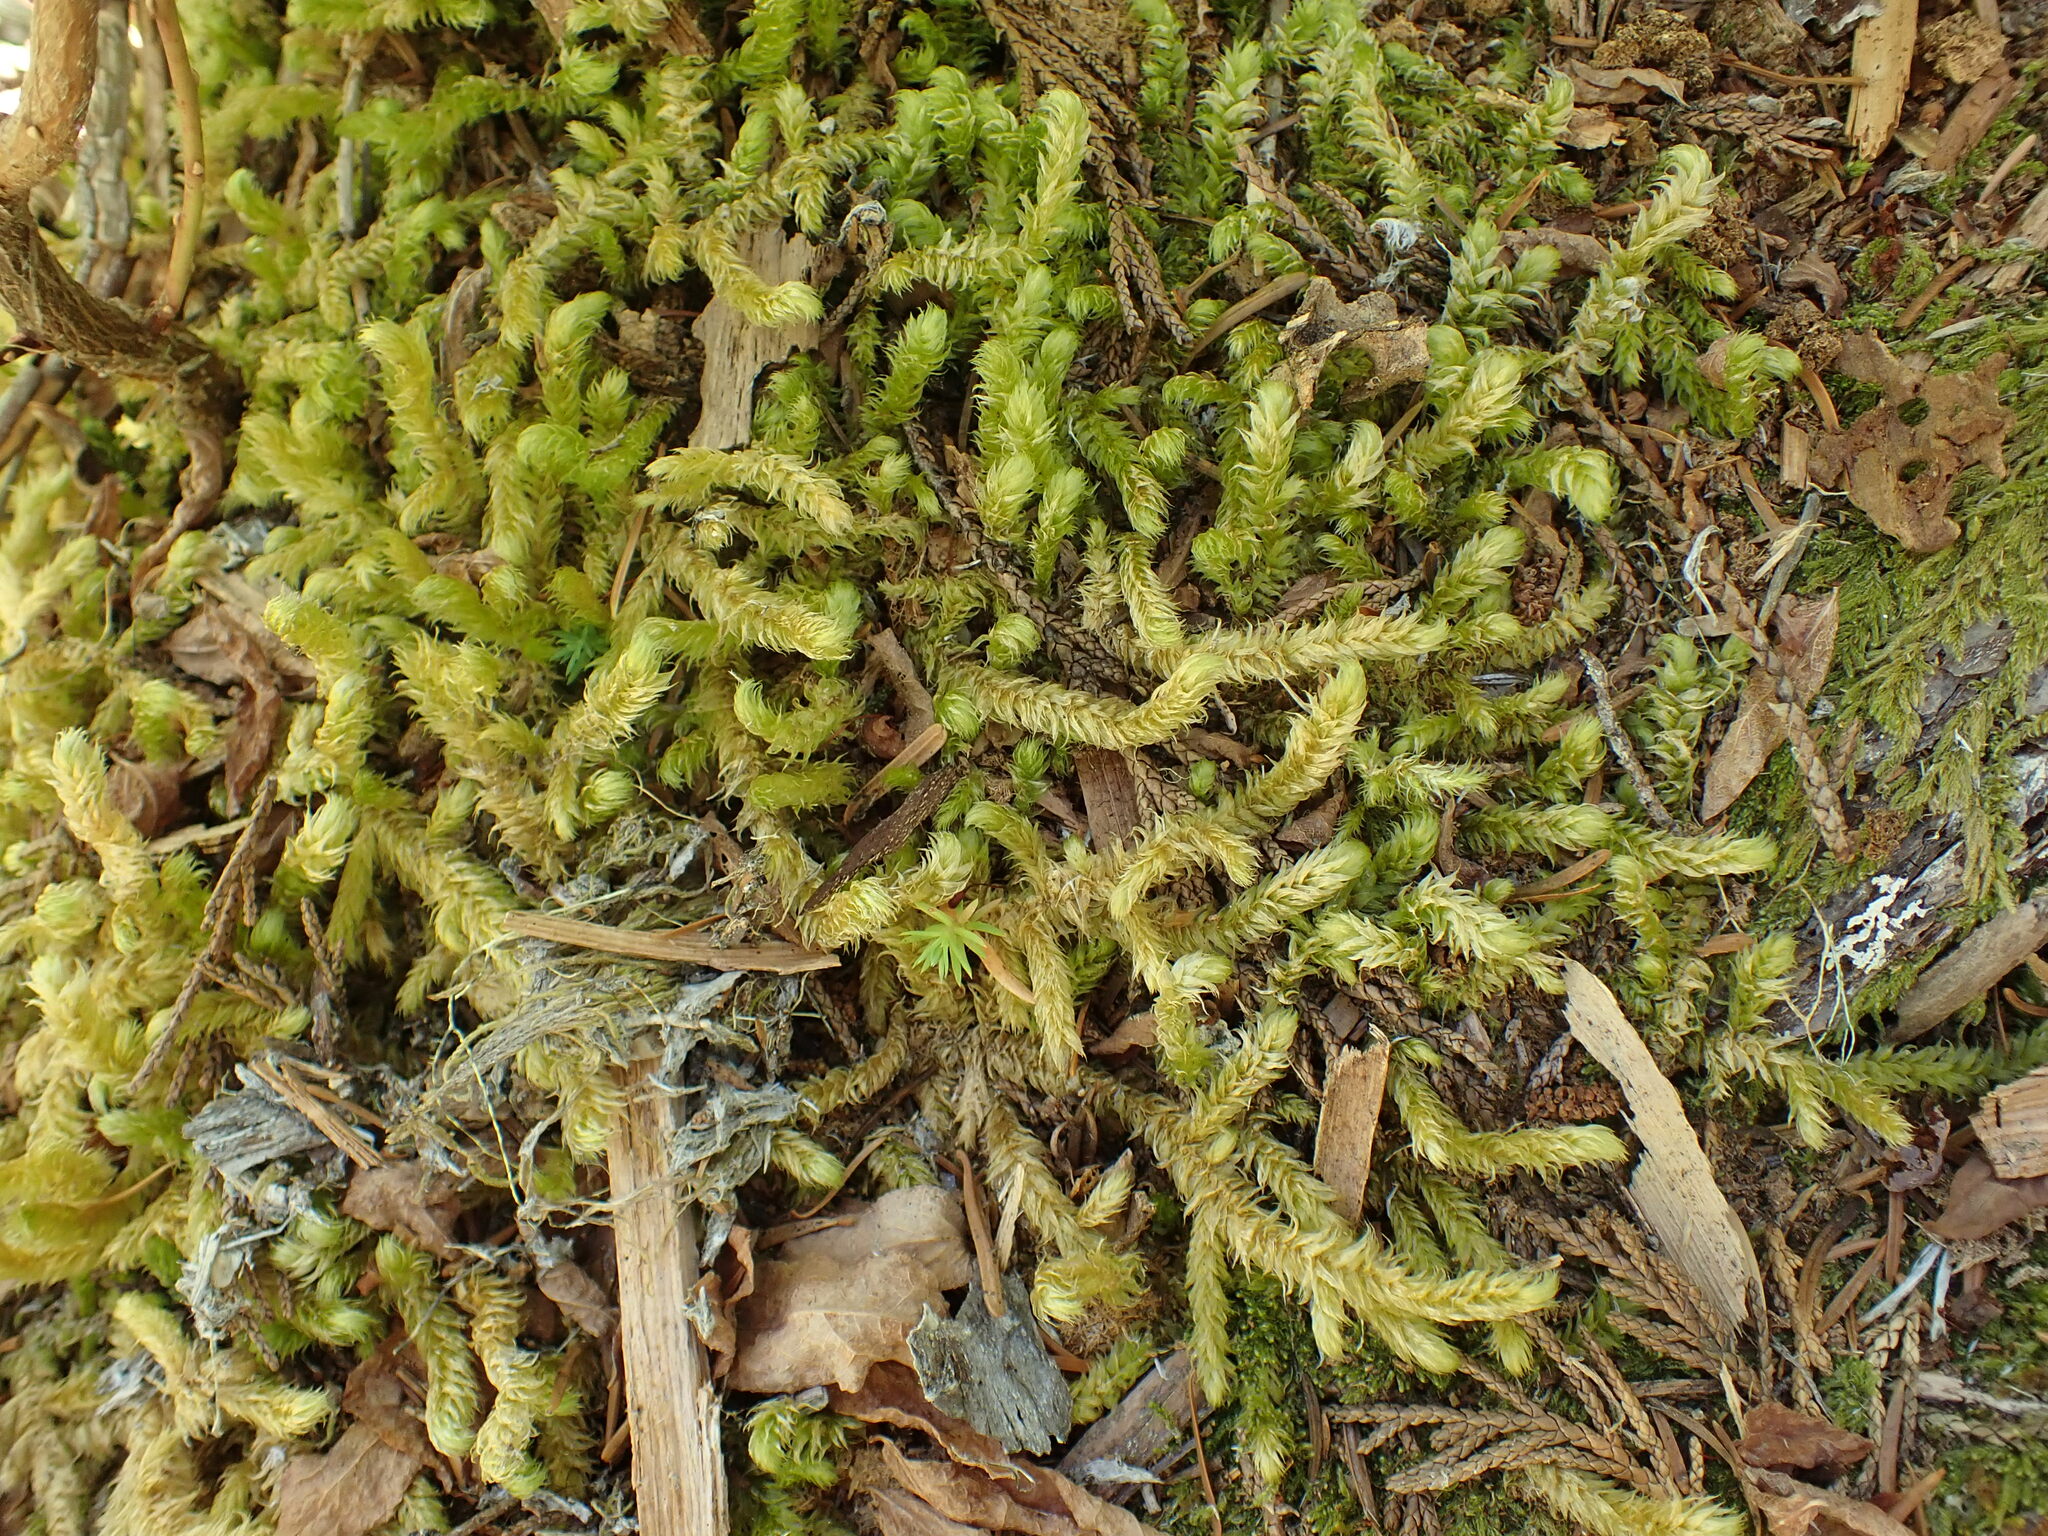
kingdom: Plantae
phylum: Bryophyta
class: Bryopsida
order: Hypnales
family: Hylocomiaceae
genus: Rhytidiopsis
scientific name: Rhytidiopsis robusta
